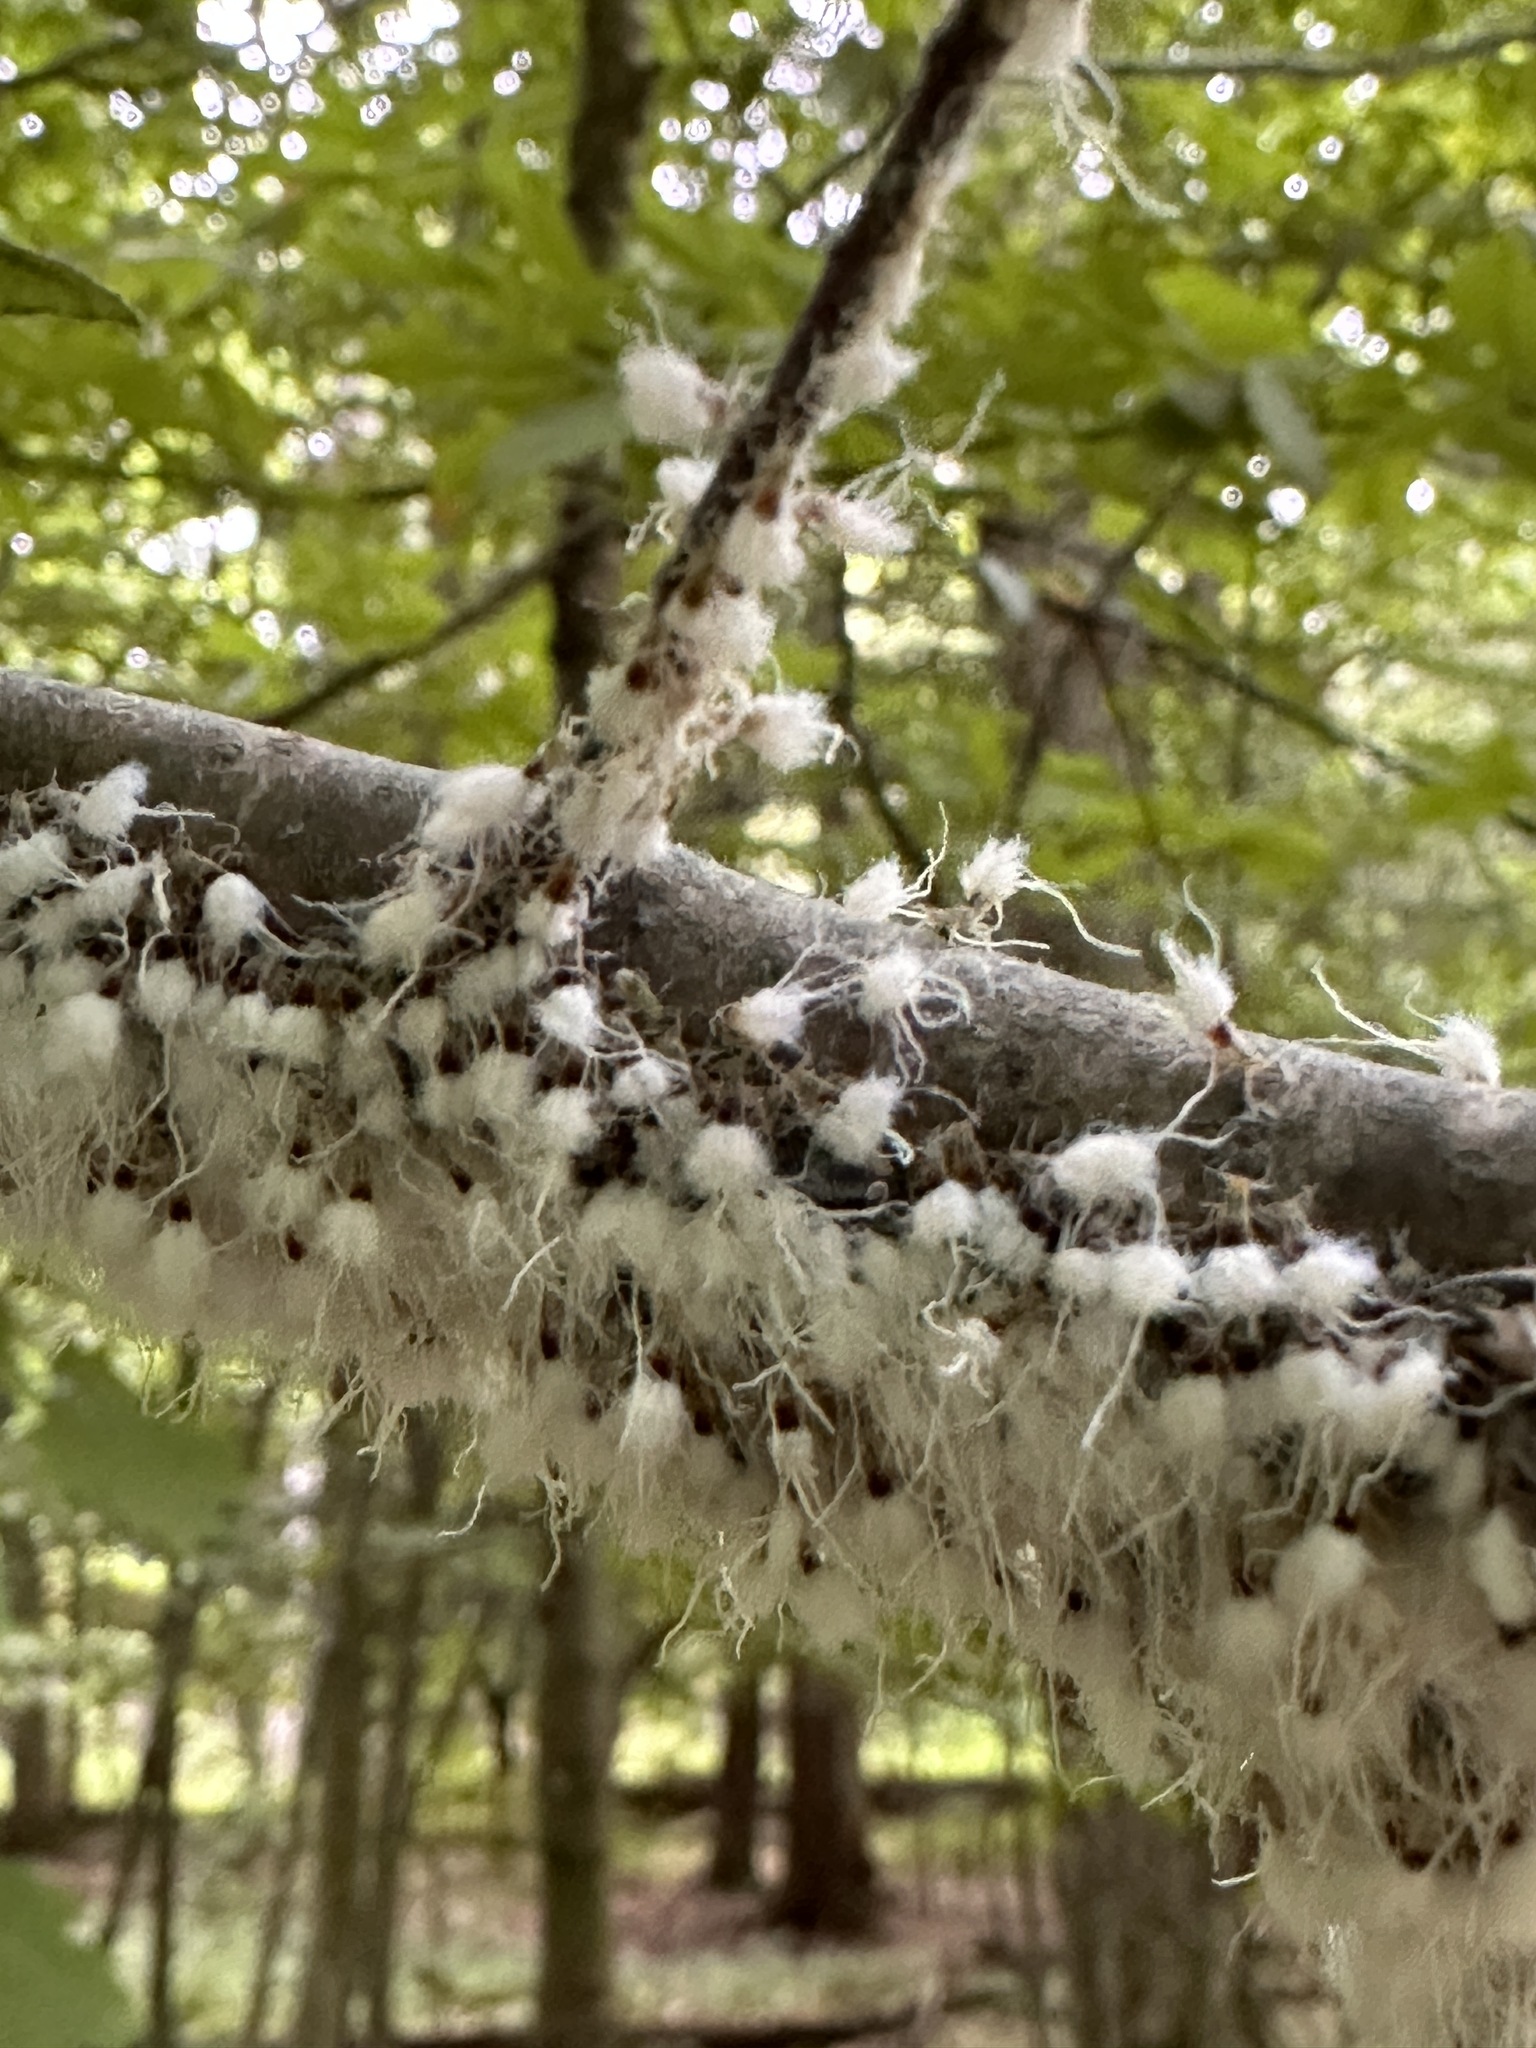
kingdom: Animalia
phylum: Arthropoda
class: Insecta
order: Hemiptera
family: Aphididae
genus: Grylloprociphilus
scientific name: Grylloprociphilus imbricator
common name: Beech blight aphid
